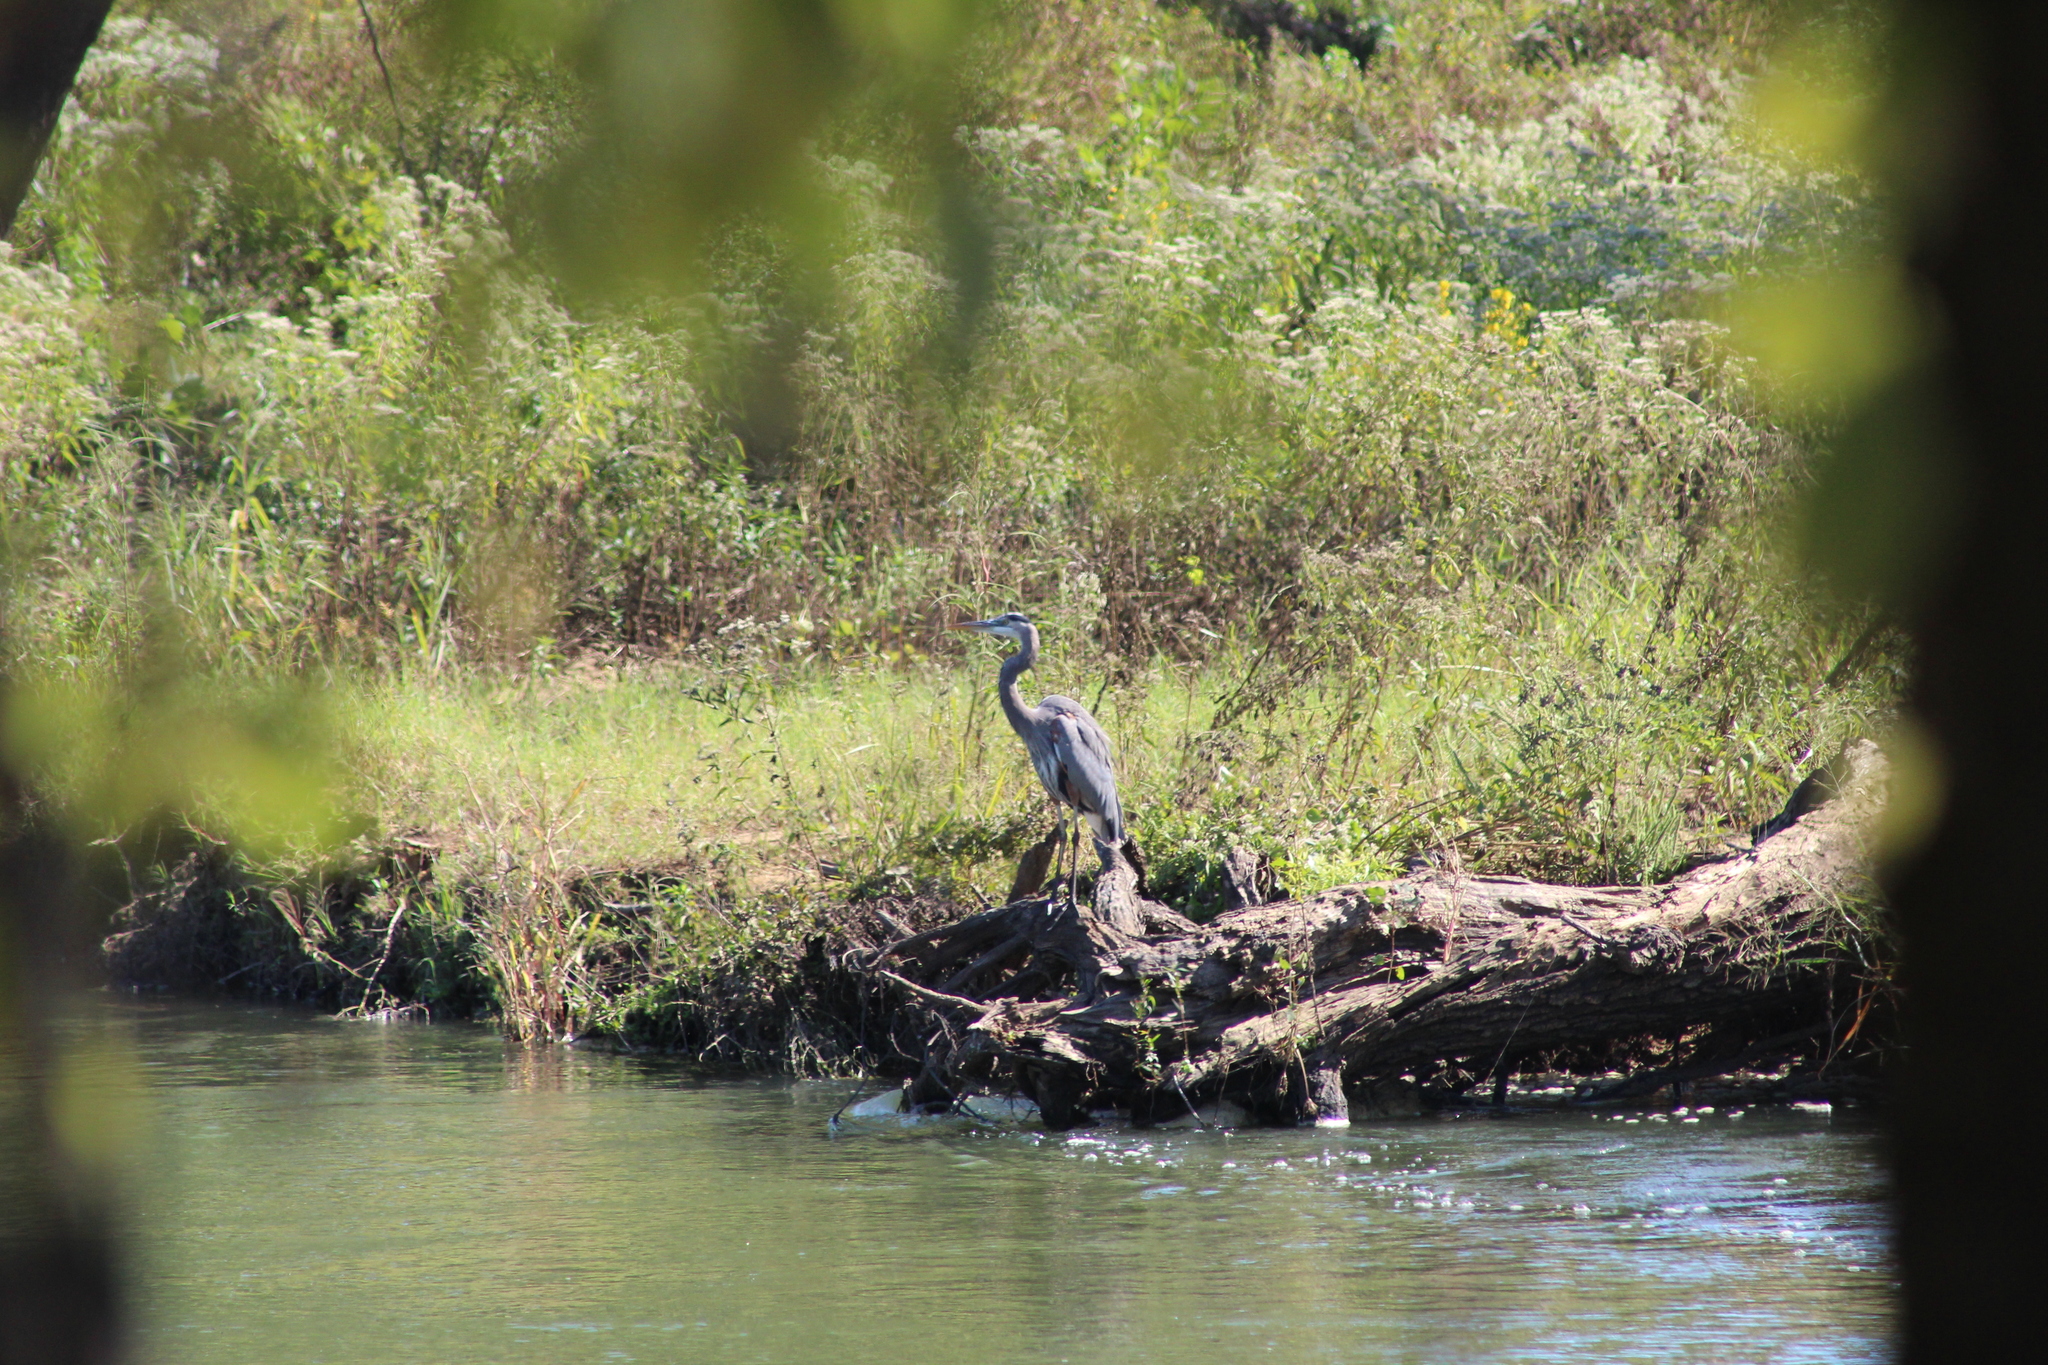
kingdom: Animalia
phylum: Chordata
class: Aves
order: Pelecaniformes
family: Ardeidae
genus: Ardea
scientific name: Ardea herodias
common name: Great blue heron
